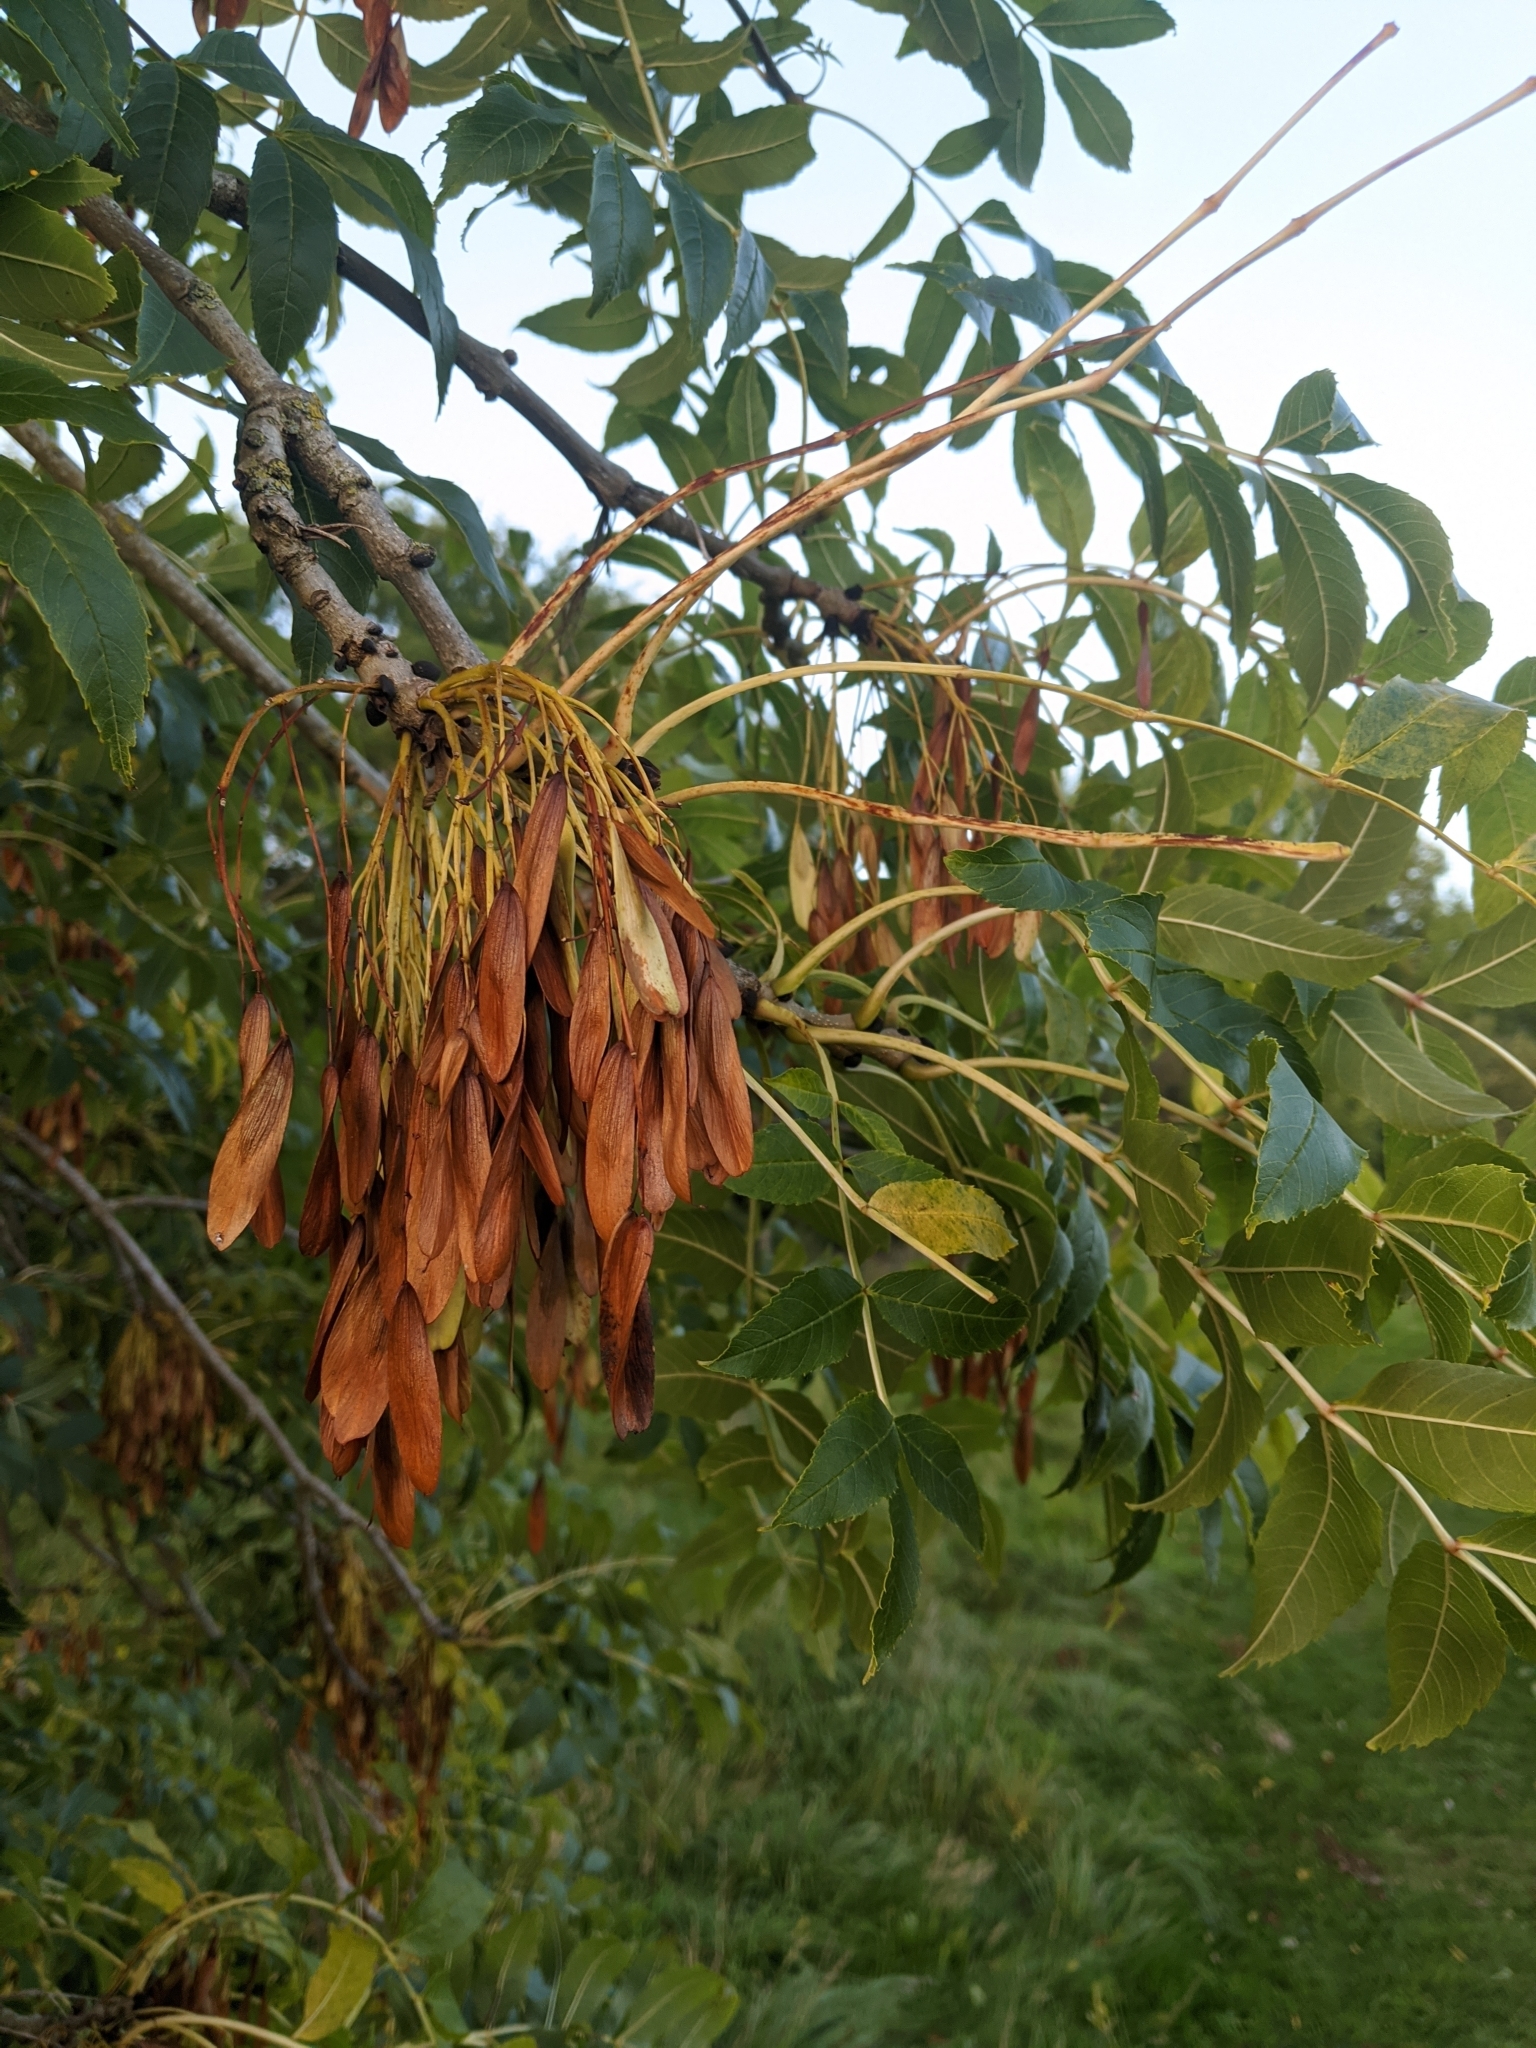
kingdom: Plantae
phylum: Tracheophyta
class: Magnoliopsida
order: Lamiales
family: Oleaceae
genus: Fraxinus
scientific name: Fraxinus excelsior
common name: European ash
